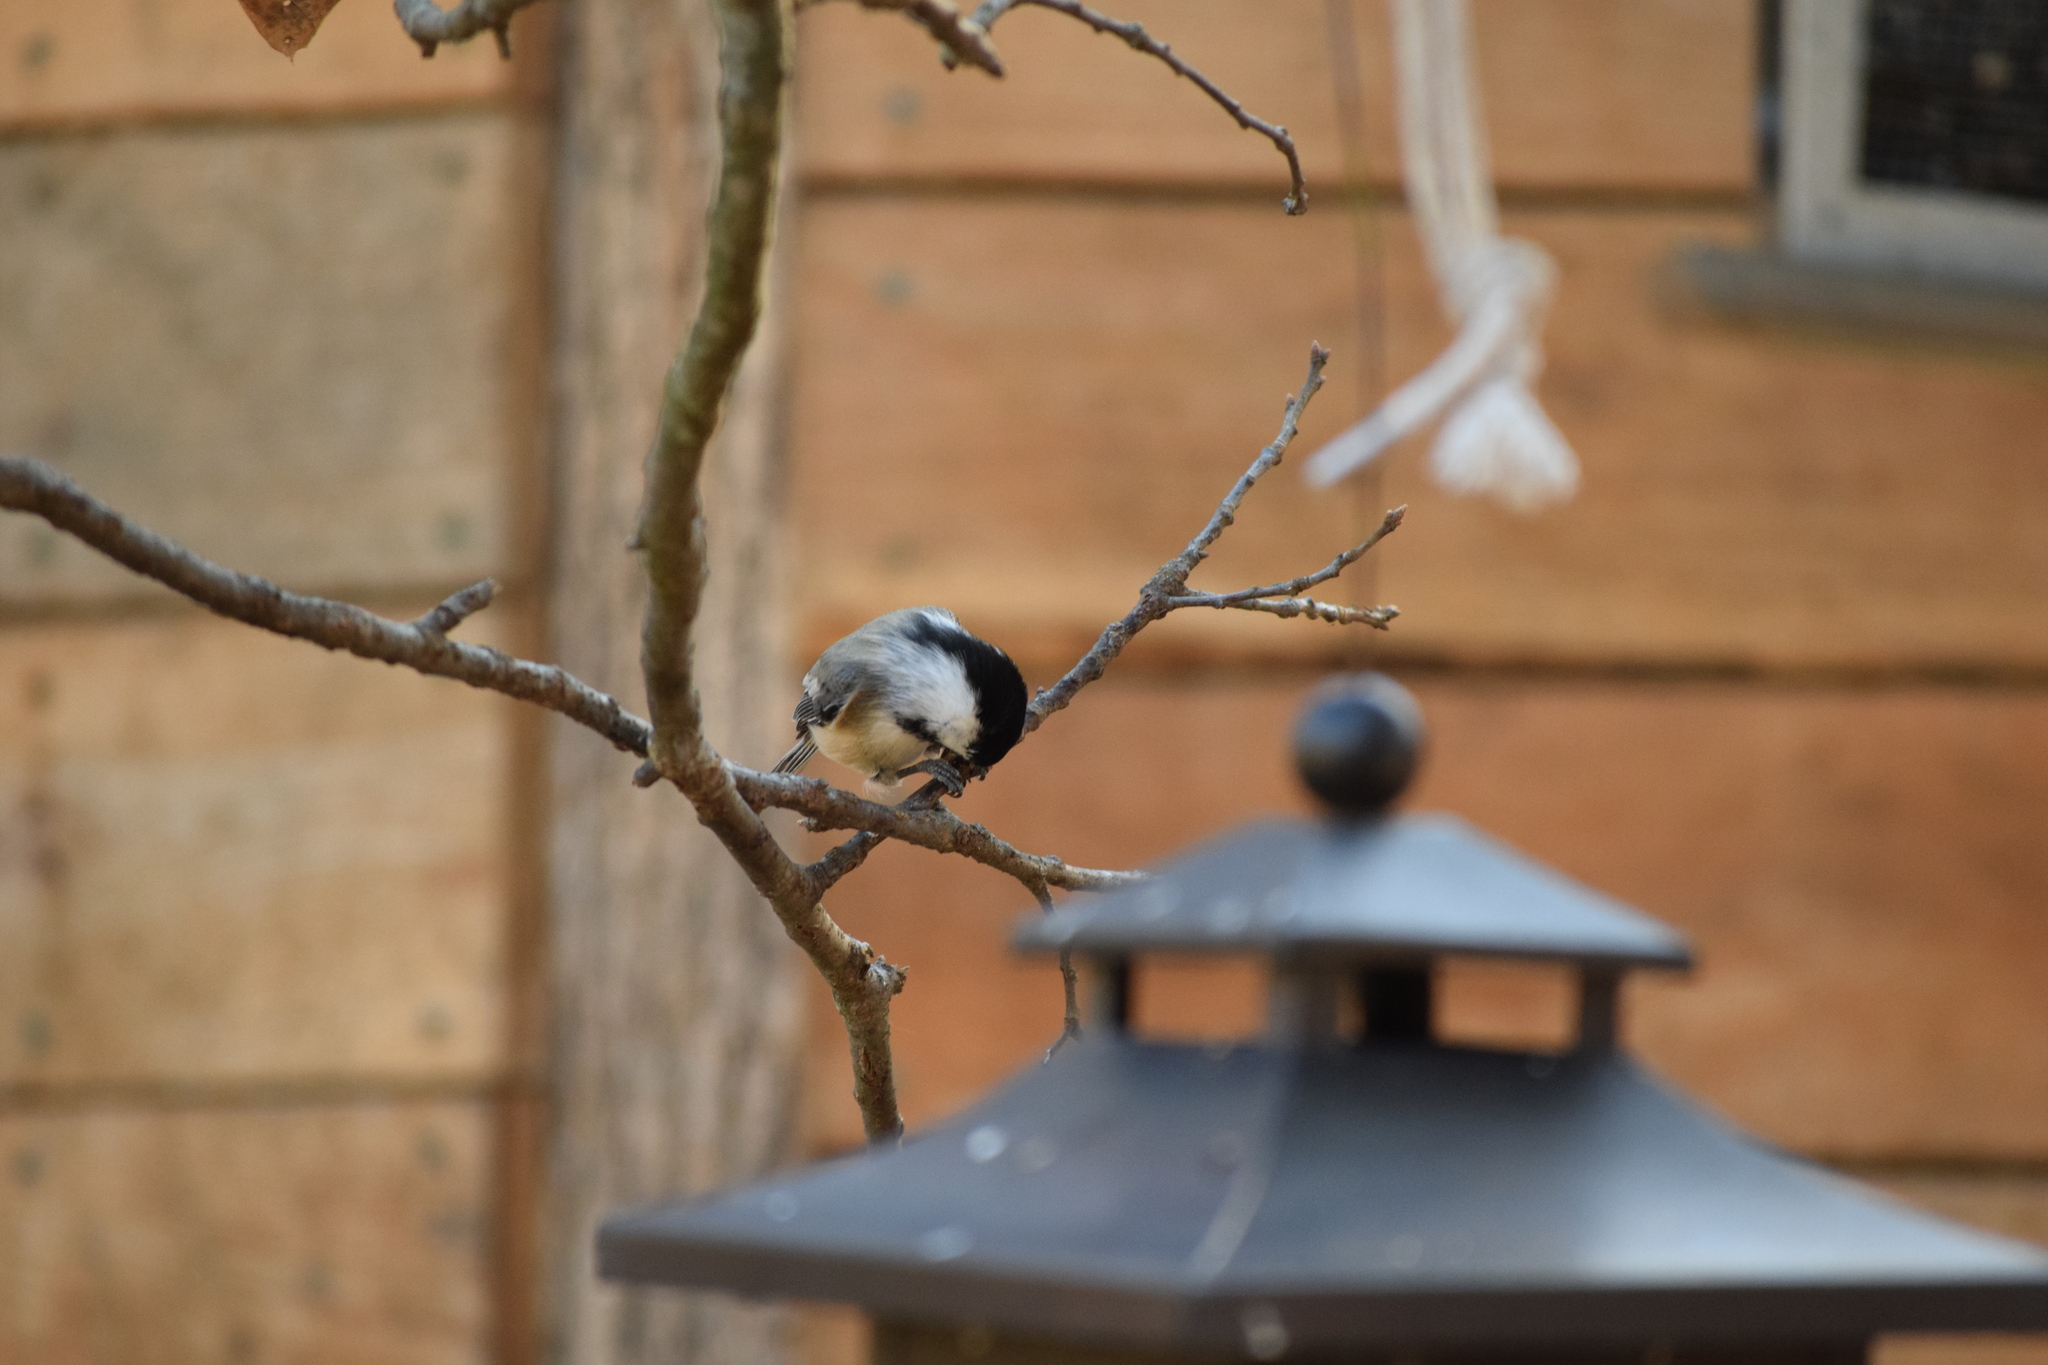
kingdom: Animalia
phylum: Chordata
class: Aves
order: Passeriformes
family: Paridae
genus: Poecile
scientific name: Poecile atricapillus
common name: Black-capped chickadee
